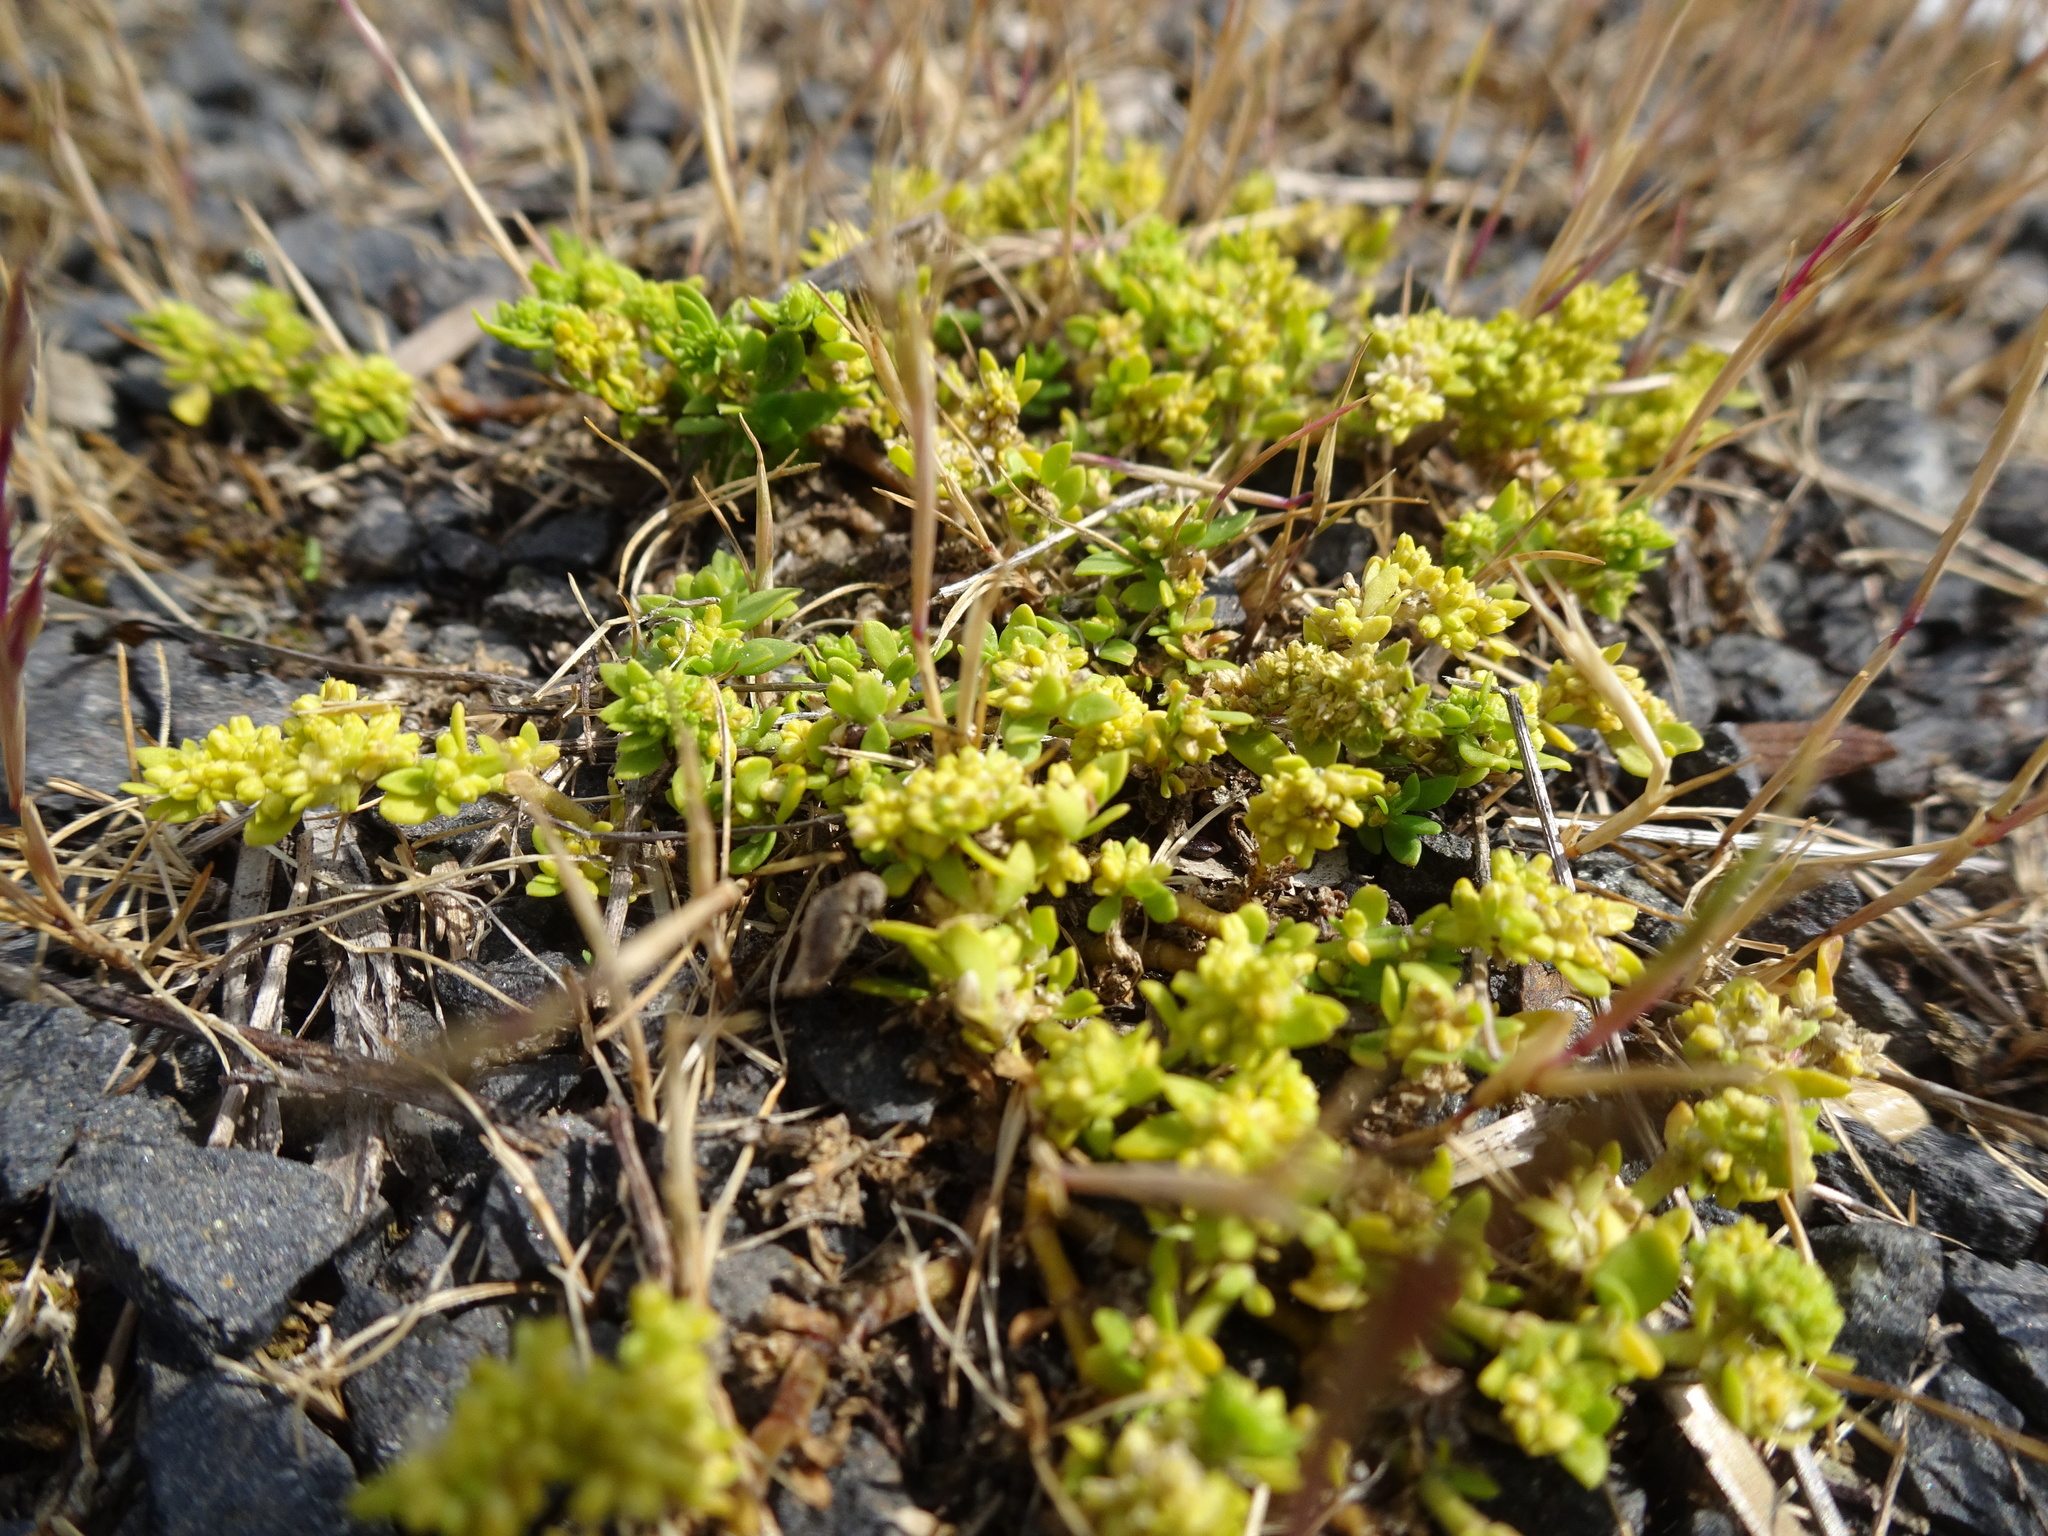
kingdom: Plantae
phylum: Tracheophyta
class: Magnoliopsida
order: Caryophyllales
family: Caryophyllaceae
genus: Herniaria
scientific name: Herniaria glabra
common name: Smooth rupturewort
